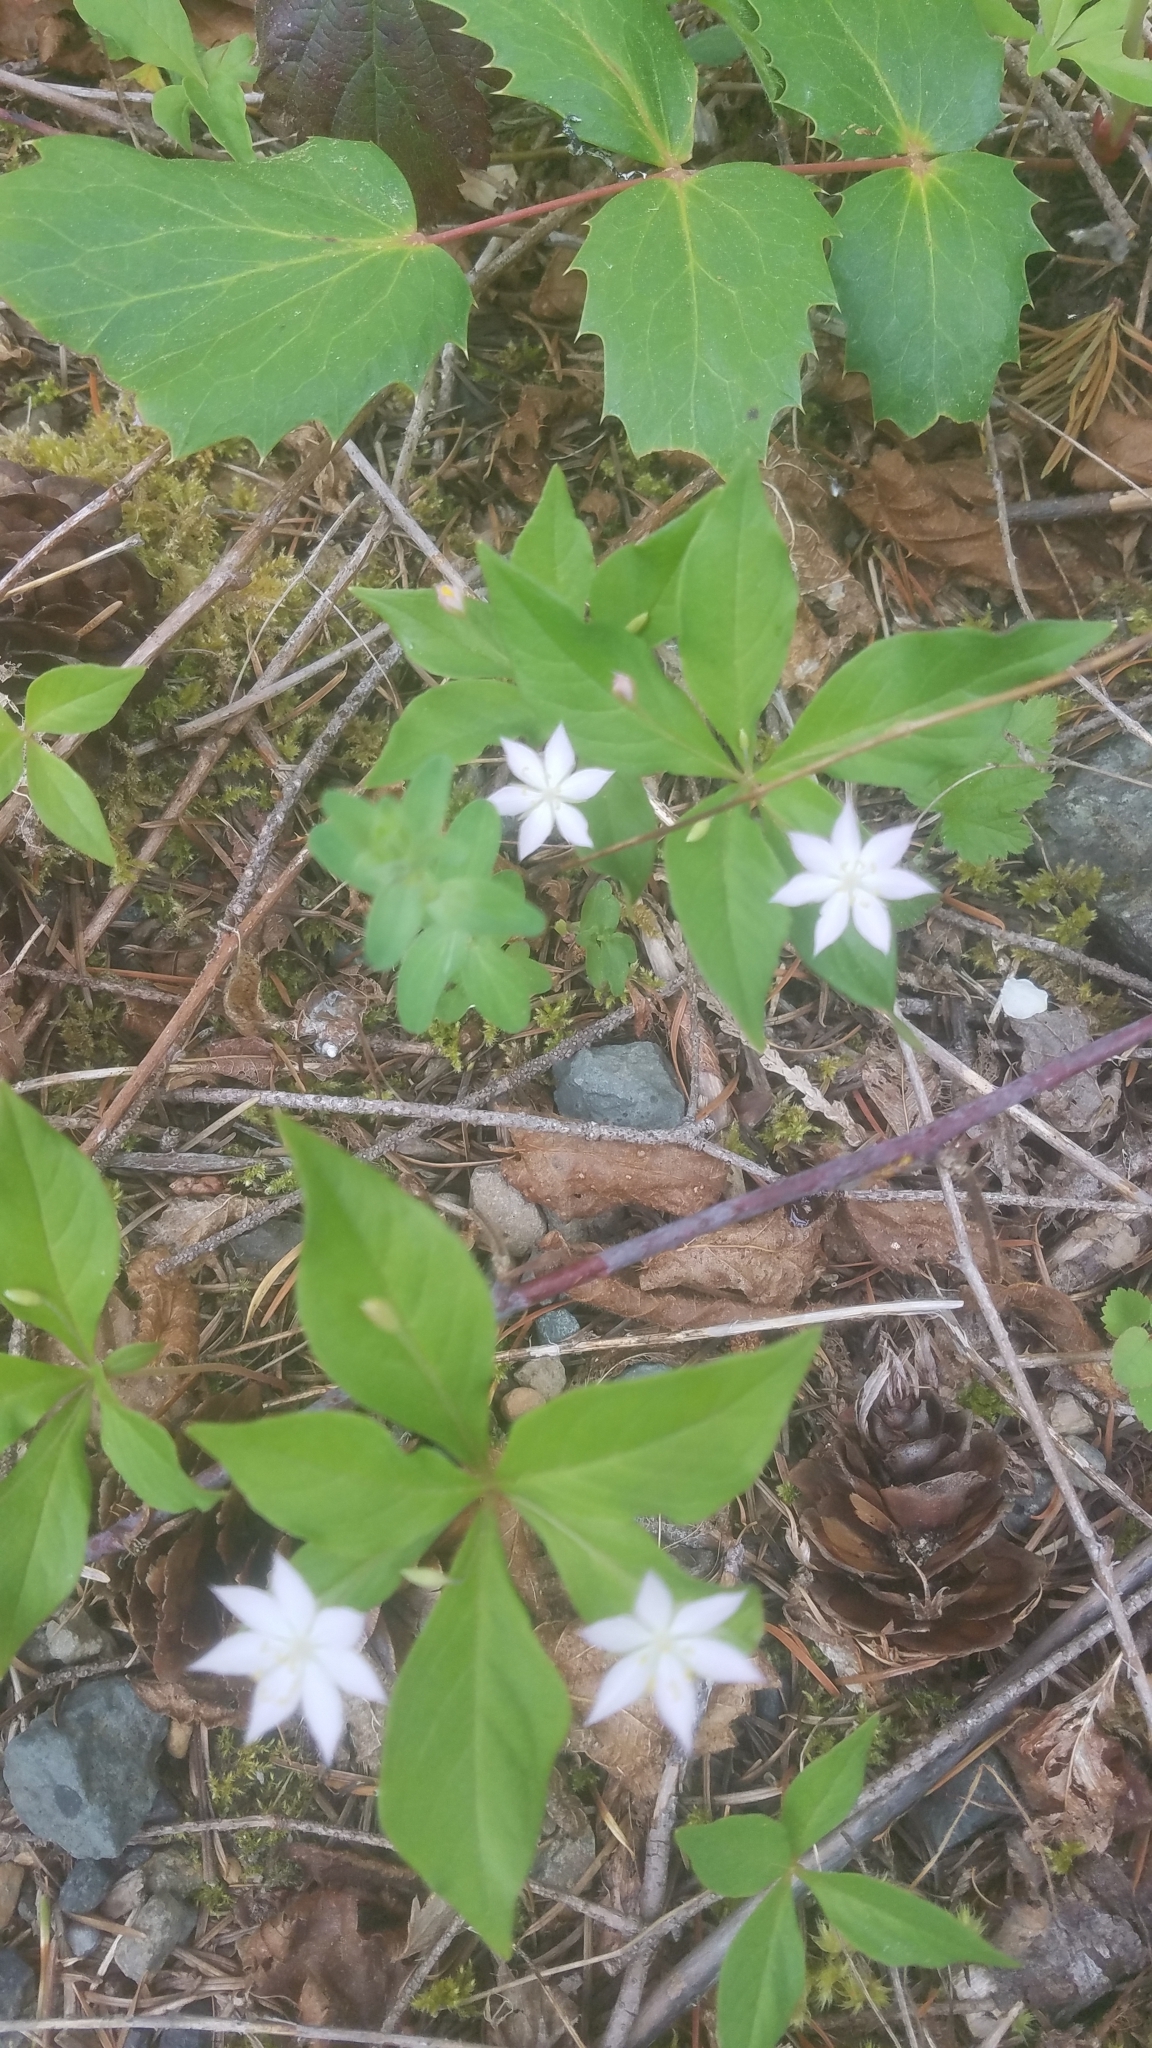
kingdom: Plantae
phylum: Tracheophyta
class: Magnoliopsida
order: Ericales
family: Primulaceae
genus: Lysimachia
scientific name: Lysimachia latifolia
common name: Pacific starflower
